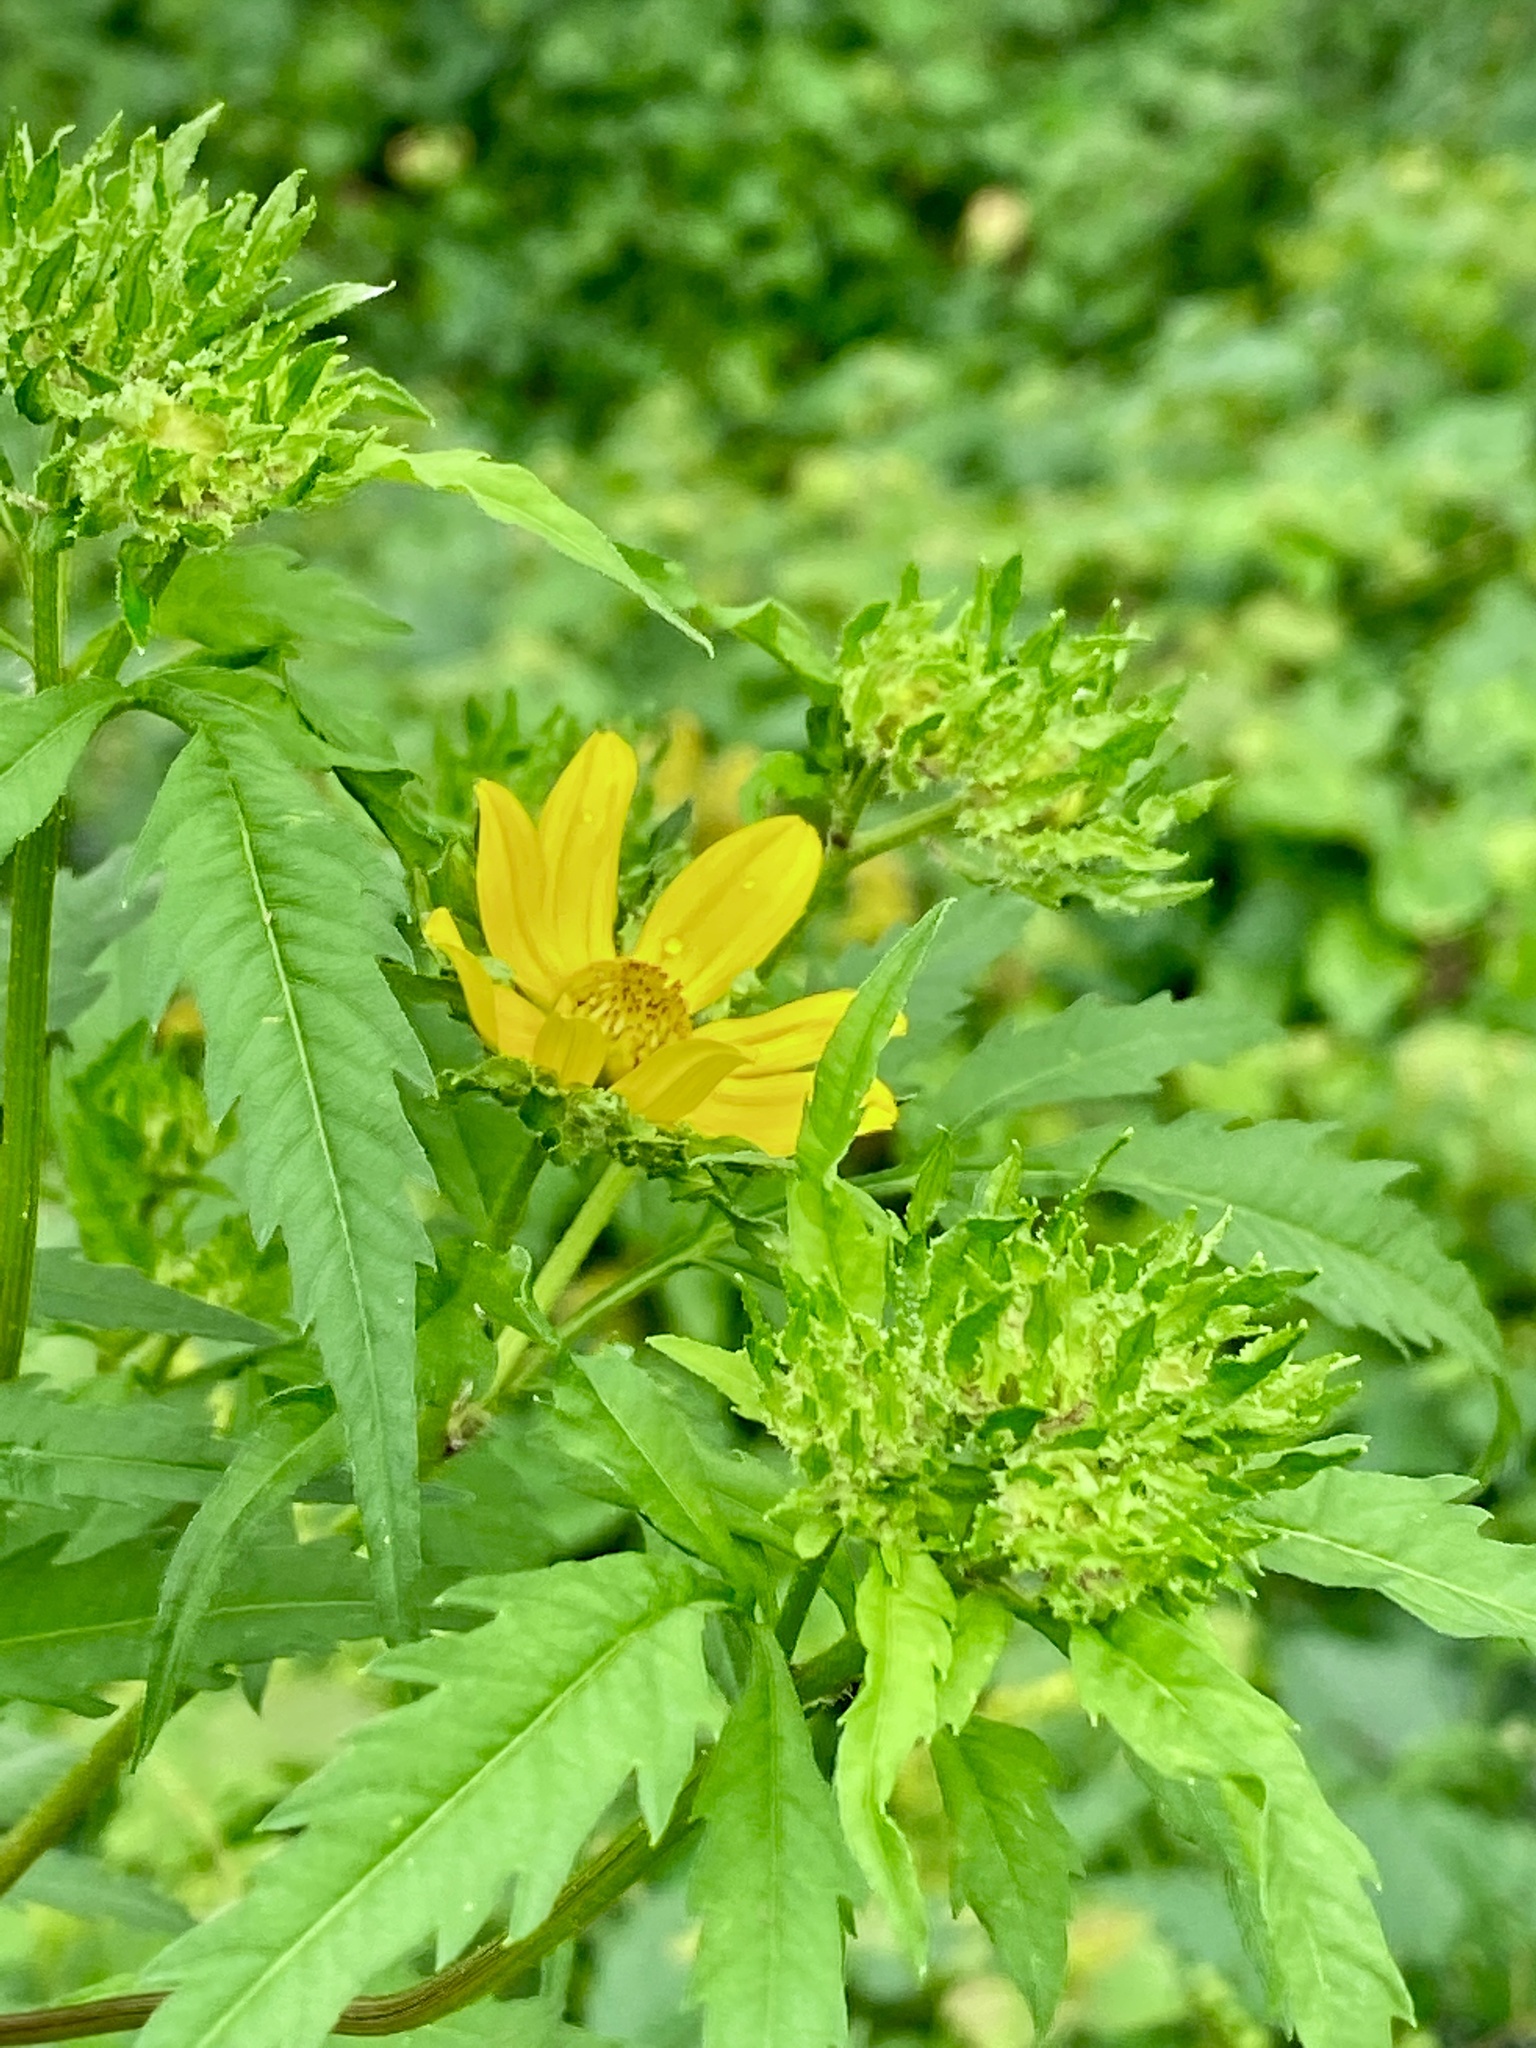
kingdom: Plantae
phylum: Tracheophyta
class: Magnoliopsida
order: Asterales
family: Asteraceae
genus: Bidens
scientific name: Bidens polylepis
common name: Awnless beggarticks
